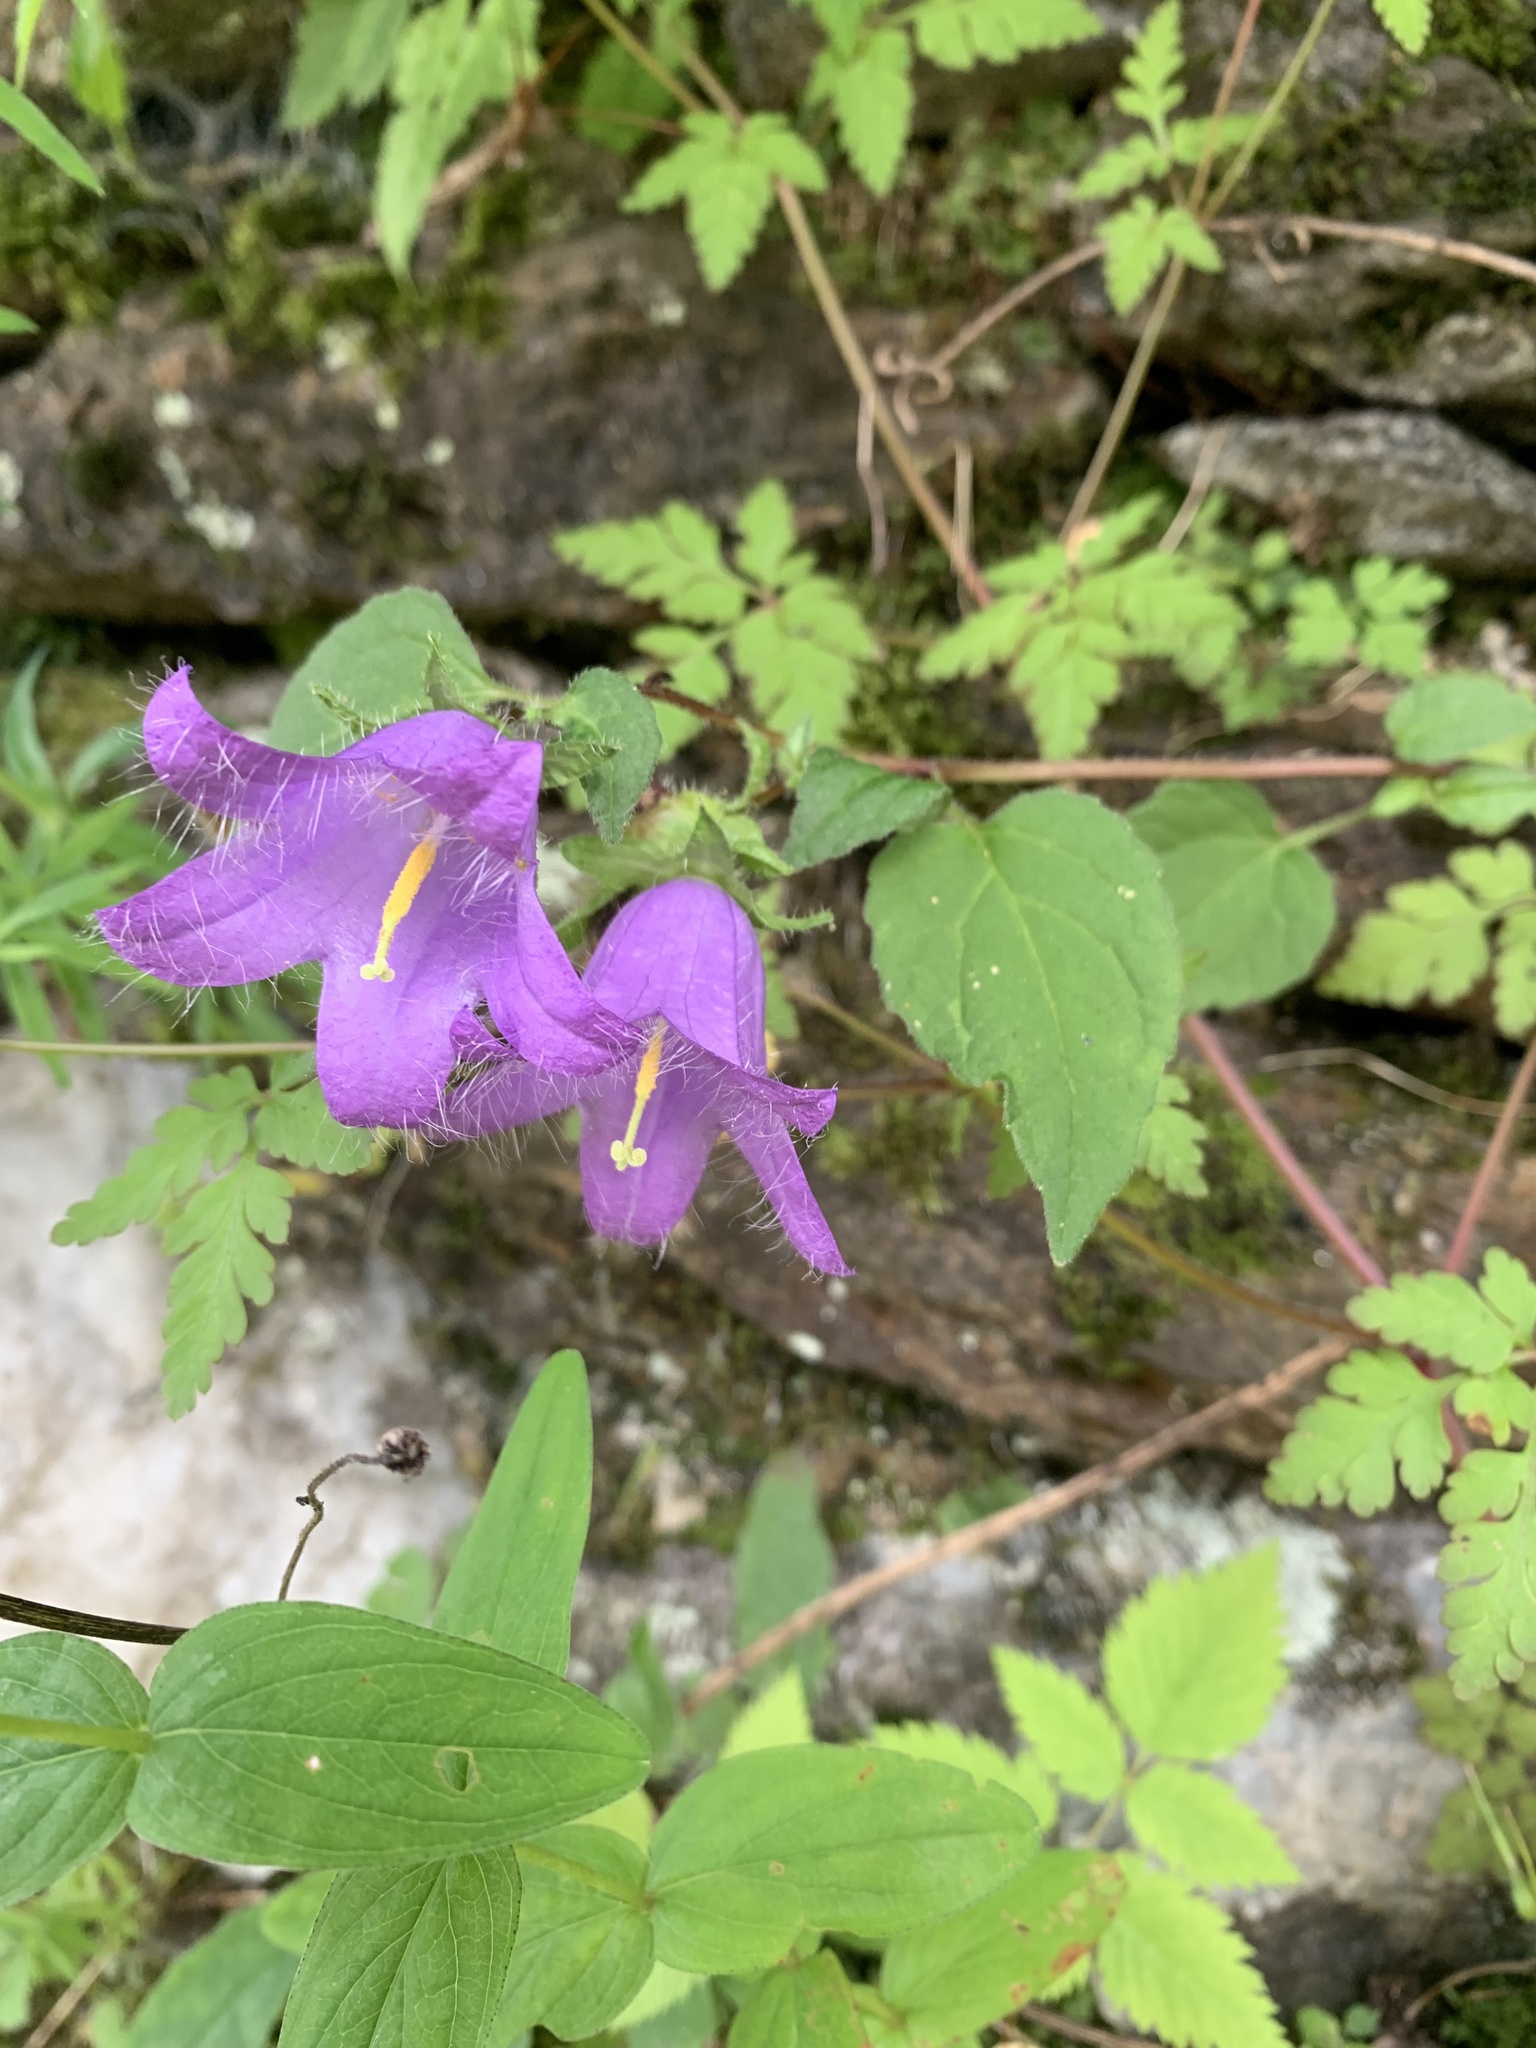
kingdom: Plantae
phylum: Tracheophyta
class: Magnoliopsida
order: Asterales
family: Campanulaceae
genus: Campanula
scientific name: Campanula trachelium
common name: Nettle-leaved bellflower
